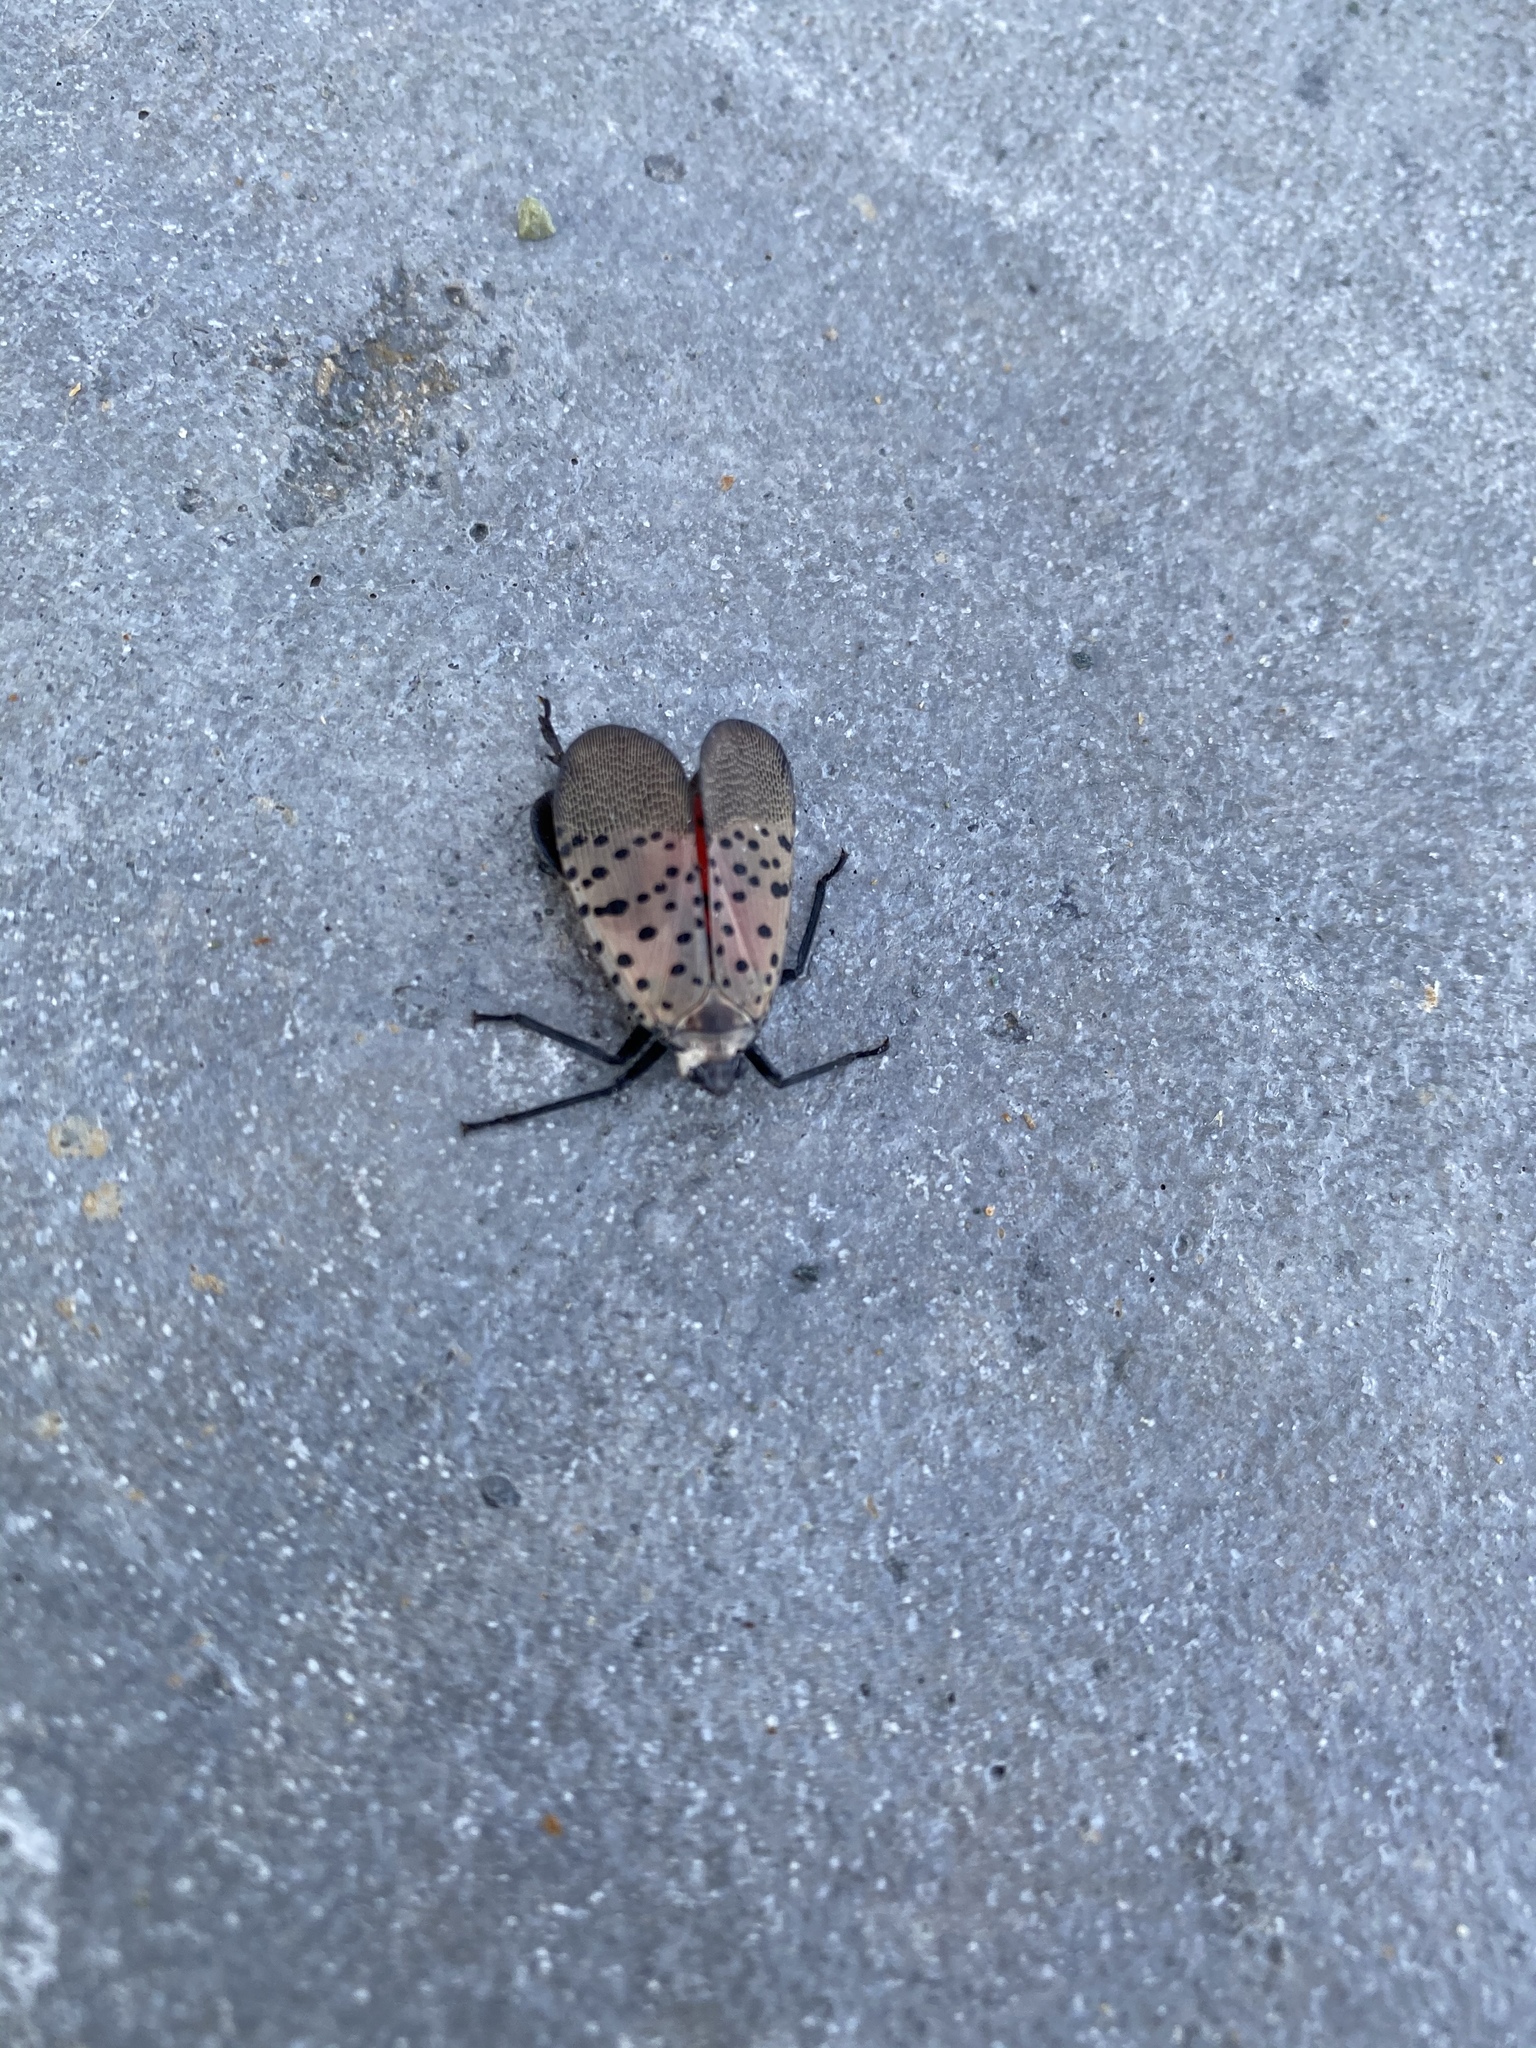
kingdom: Animalia
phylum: Arthropoda
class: Insecta
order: Hemiptera
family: Fulgoridae
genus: Lycorma
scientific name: Lycorma delicatula
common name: Spotted lanternfly
